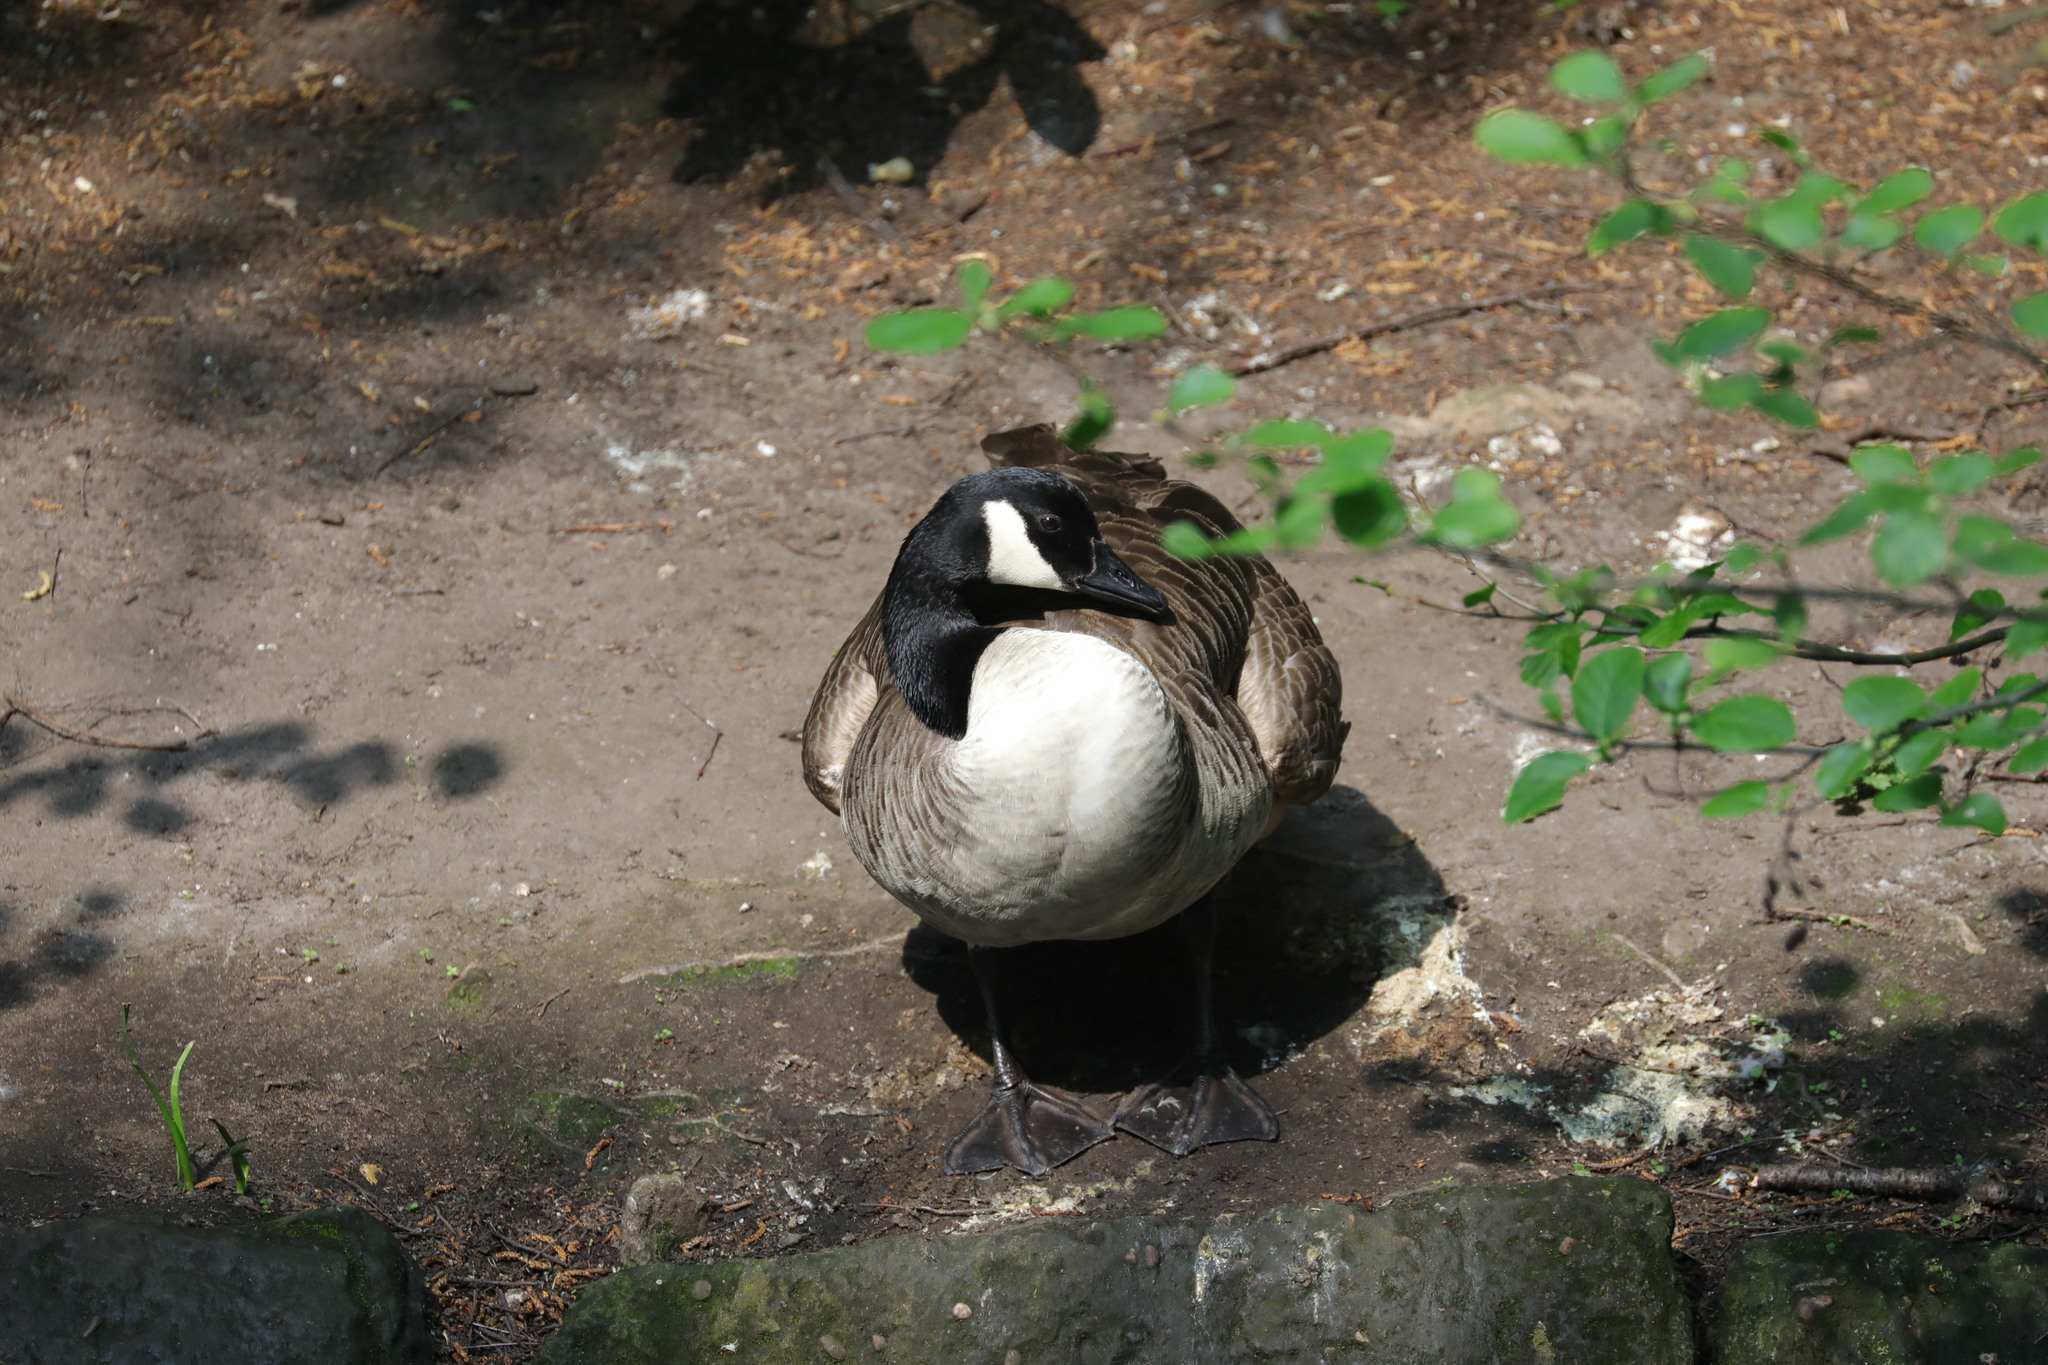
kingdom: Animalia
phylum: Chordata
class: Aves
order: Anseriformes
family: Anatidae
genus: Branta
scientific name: Branta canadensis
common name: Canada goose
